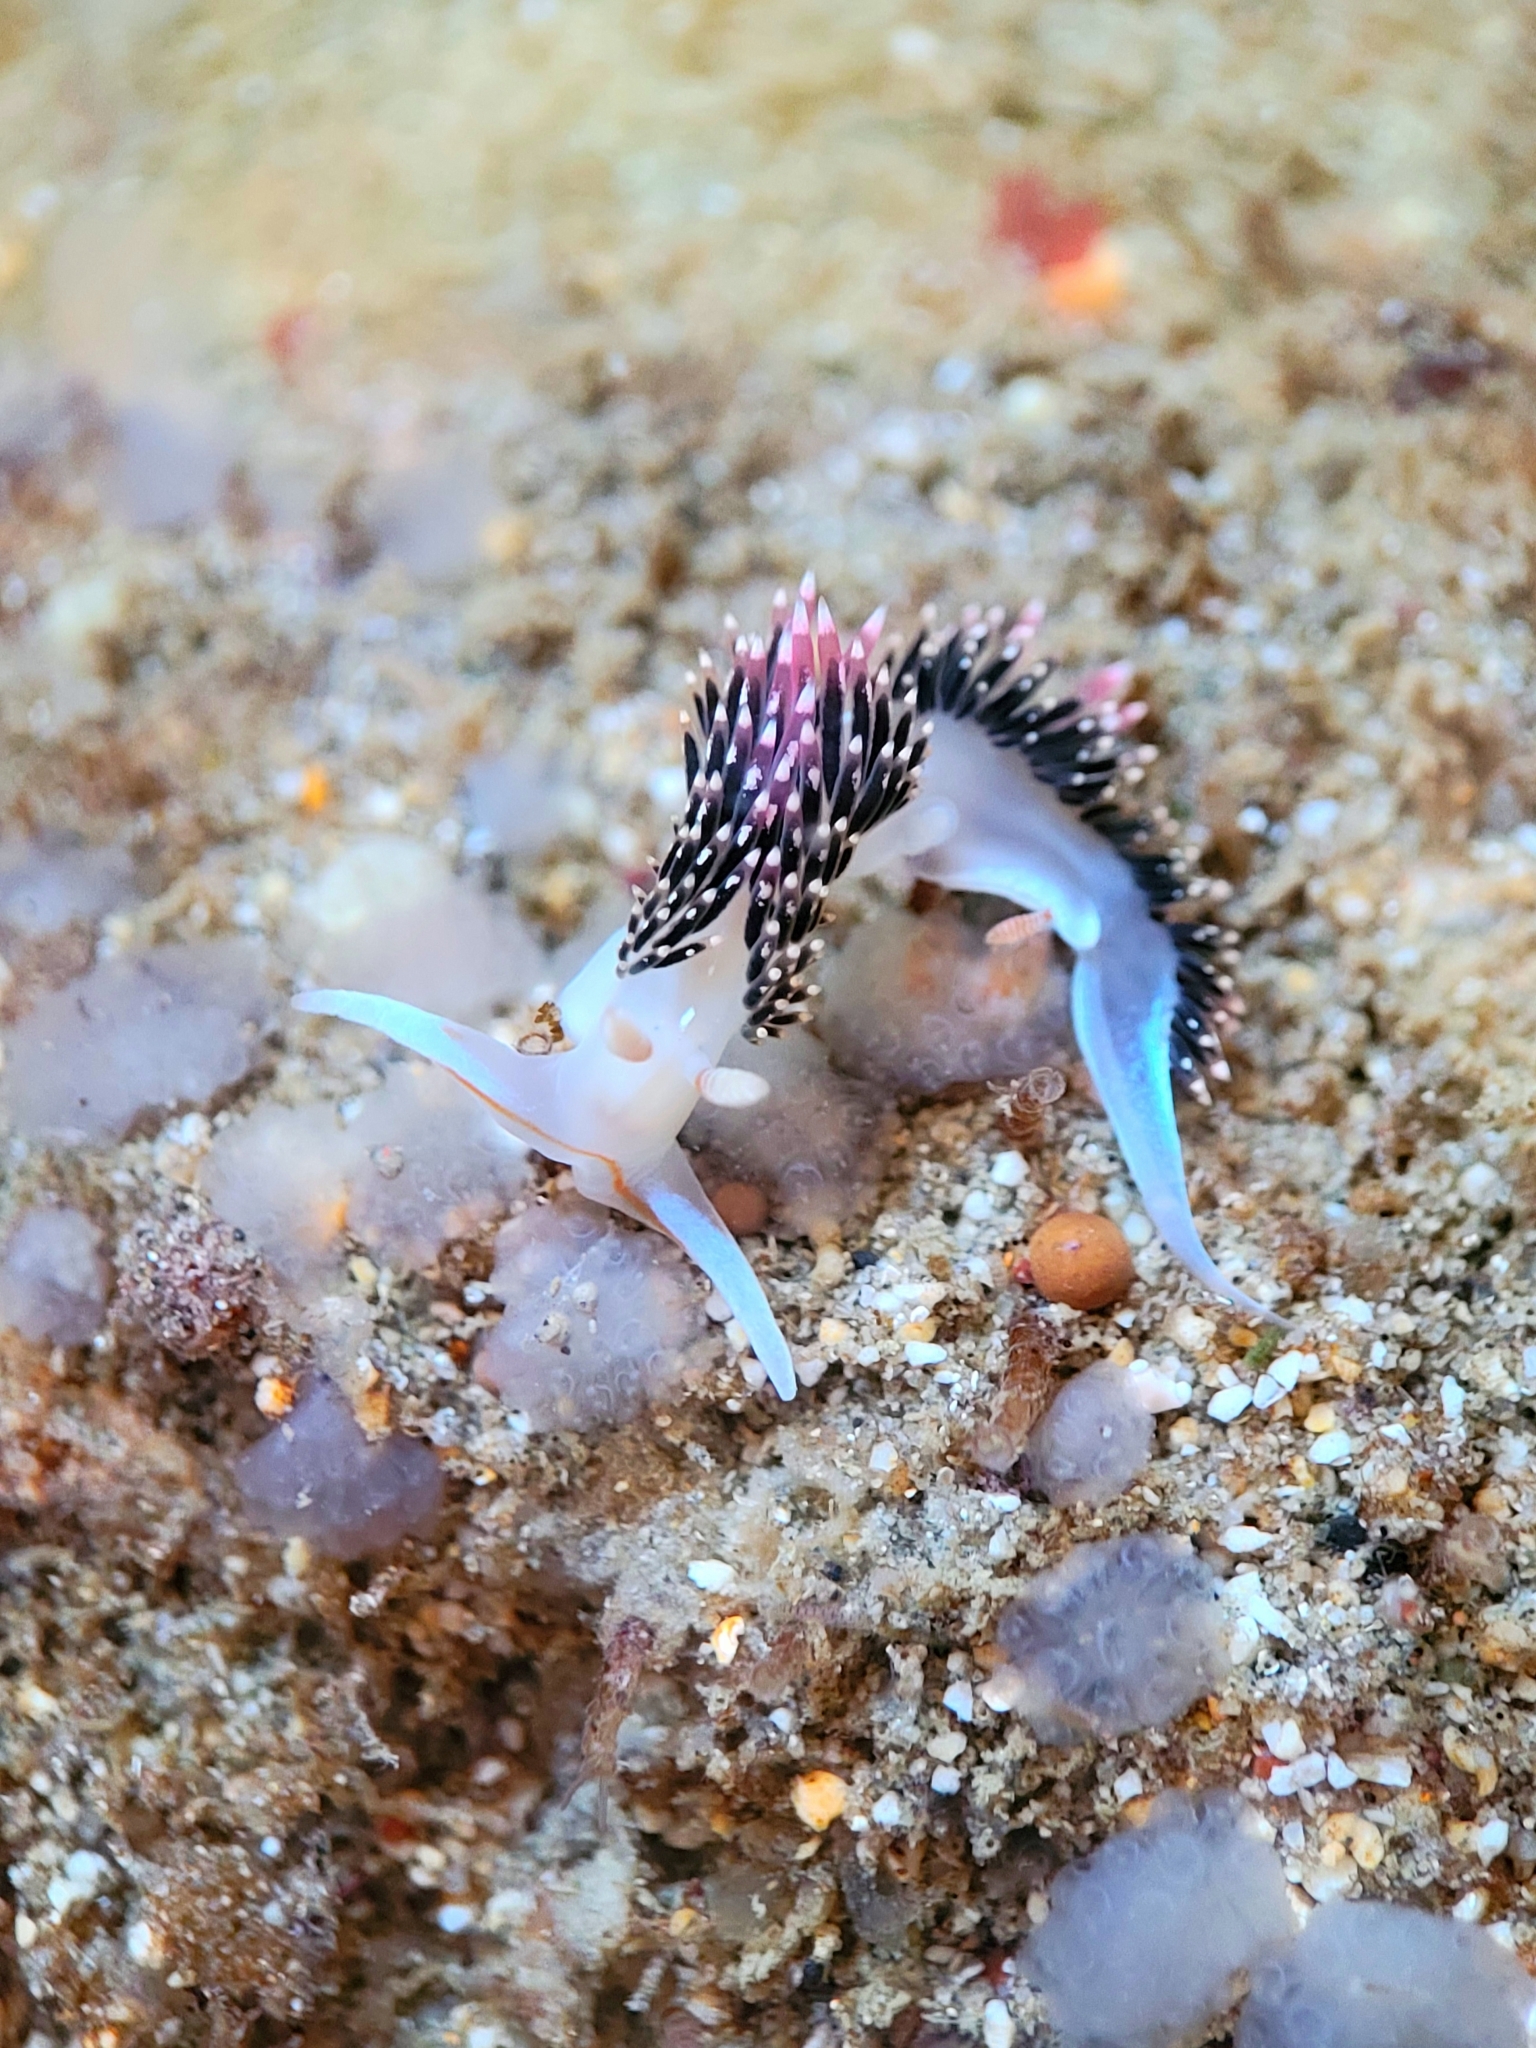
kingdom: Animalia
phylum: Mollusca
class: Gastropoda
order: Nudibranchia
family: Facelinidae
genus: Phidiana
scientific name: Phidiana hiltoni
